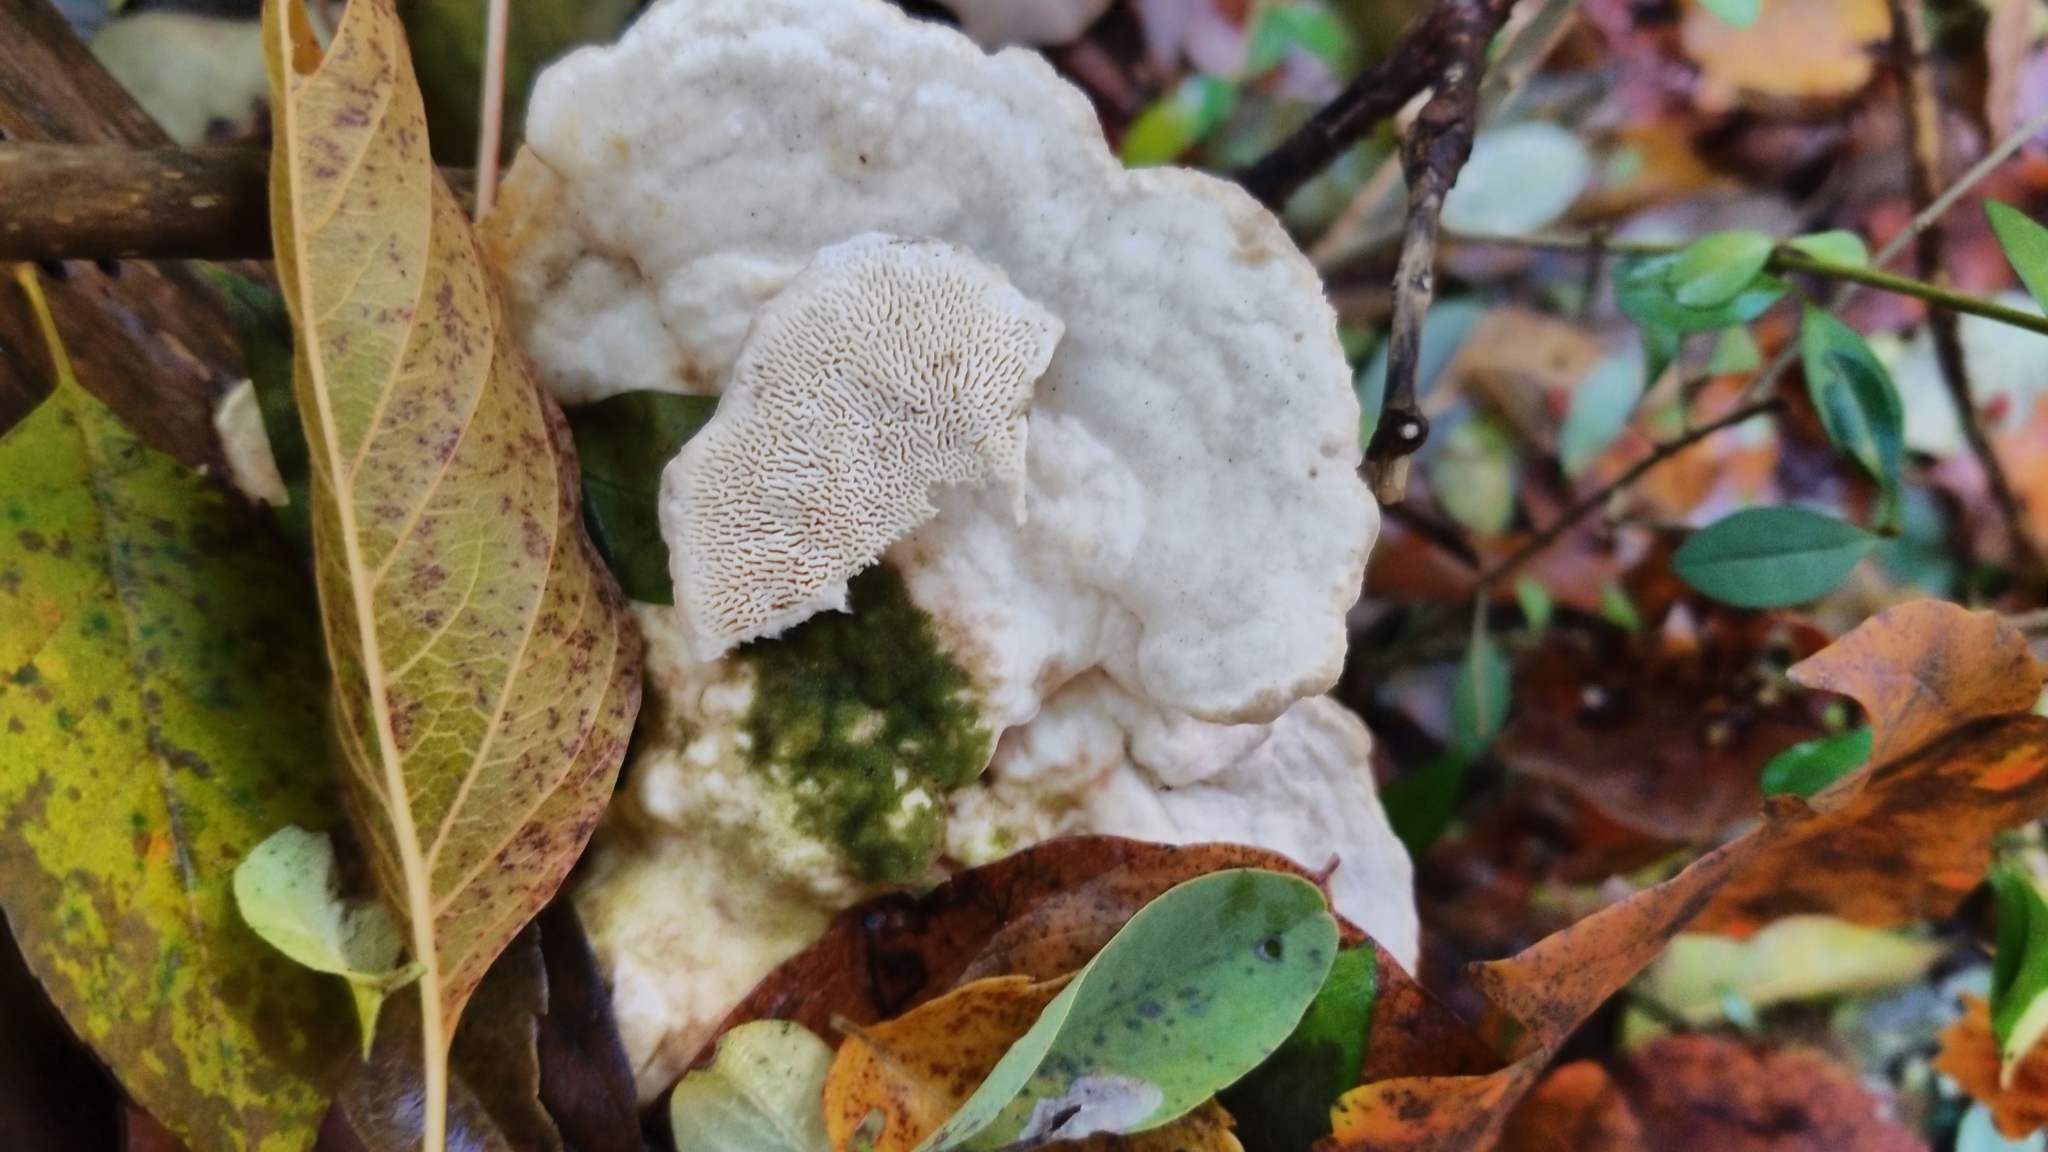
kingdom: Fungi
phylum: Basidiomycota
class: Agaricomycetes
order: Polyporales
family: Polyporaceae
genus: Trametes
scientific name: Trametes gibbosa
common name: Lumpy bracket
